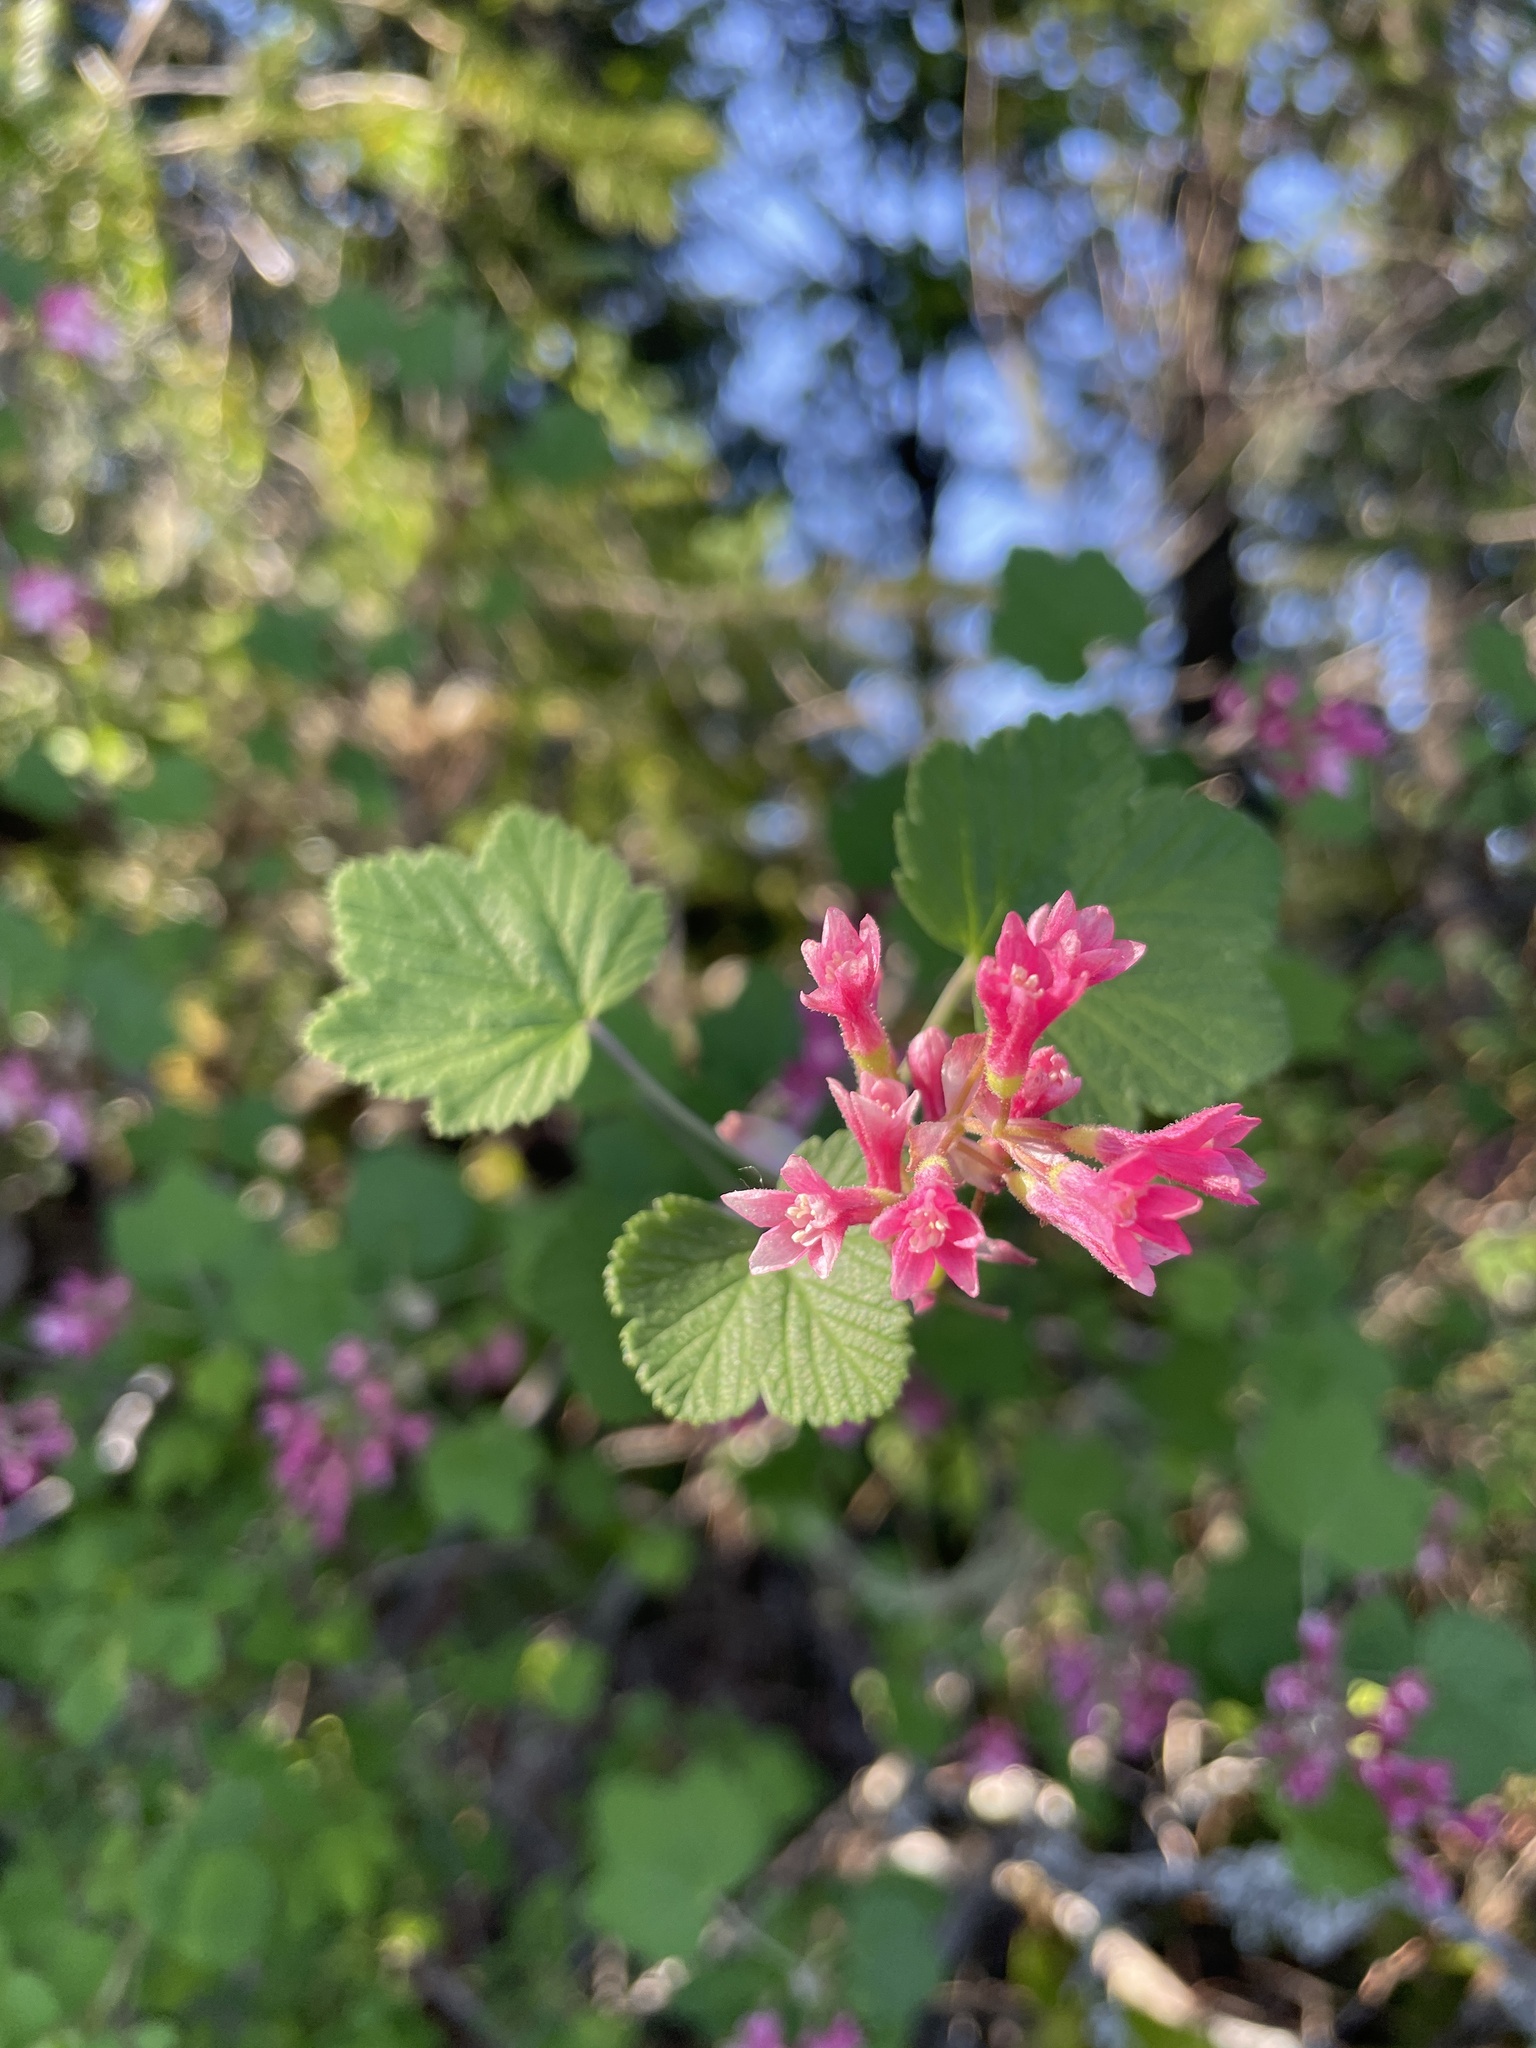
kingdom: Plantae
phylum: Tracheophyta
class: Magnoliopsida
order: Saxifragales
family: Grossulariaceae
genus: Ribes
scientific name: Ribes sanguineum
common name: Flowering currant
